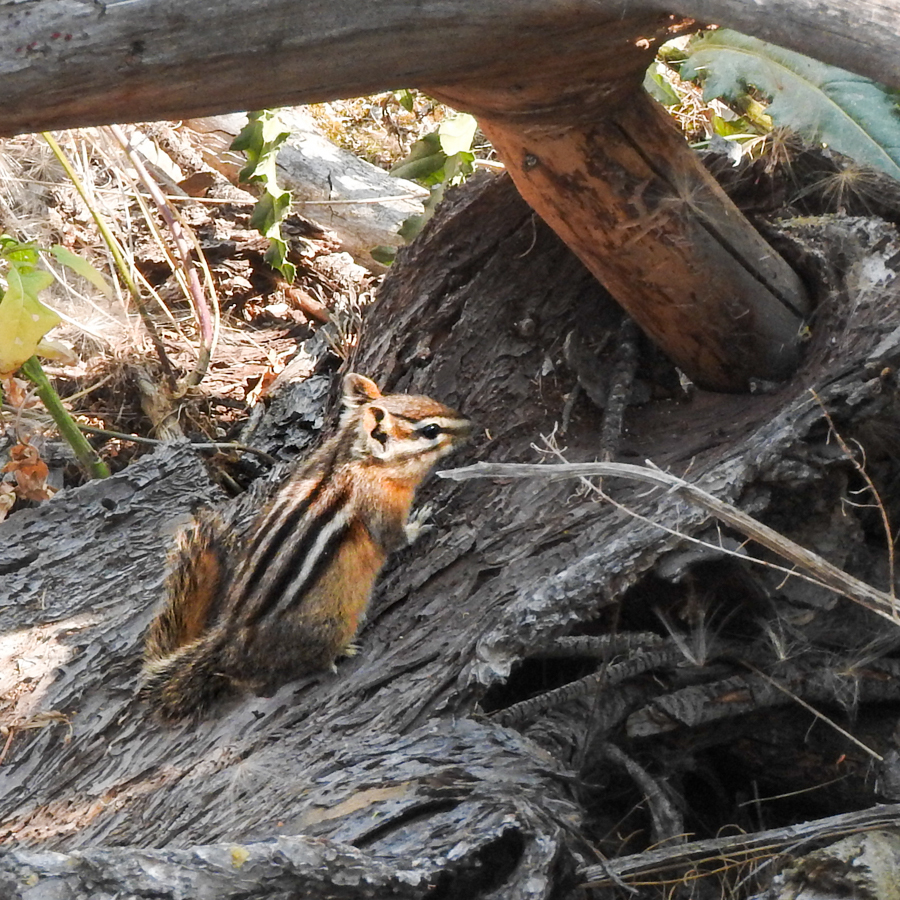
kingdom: Animalia
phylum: Chordata
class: Mammalia
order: Rodentia
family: Sciuridae
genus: Tamias
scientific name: Tamias amoenus
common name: Yellow-pine chipmunk
